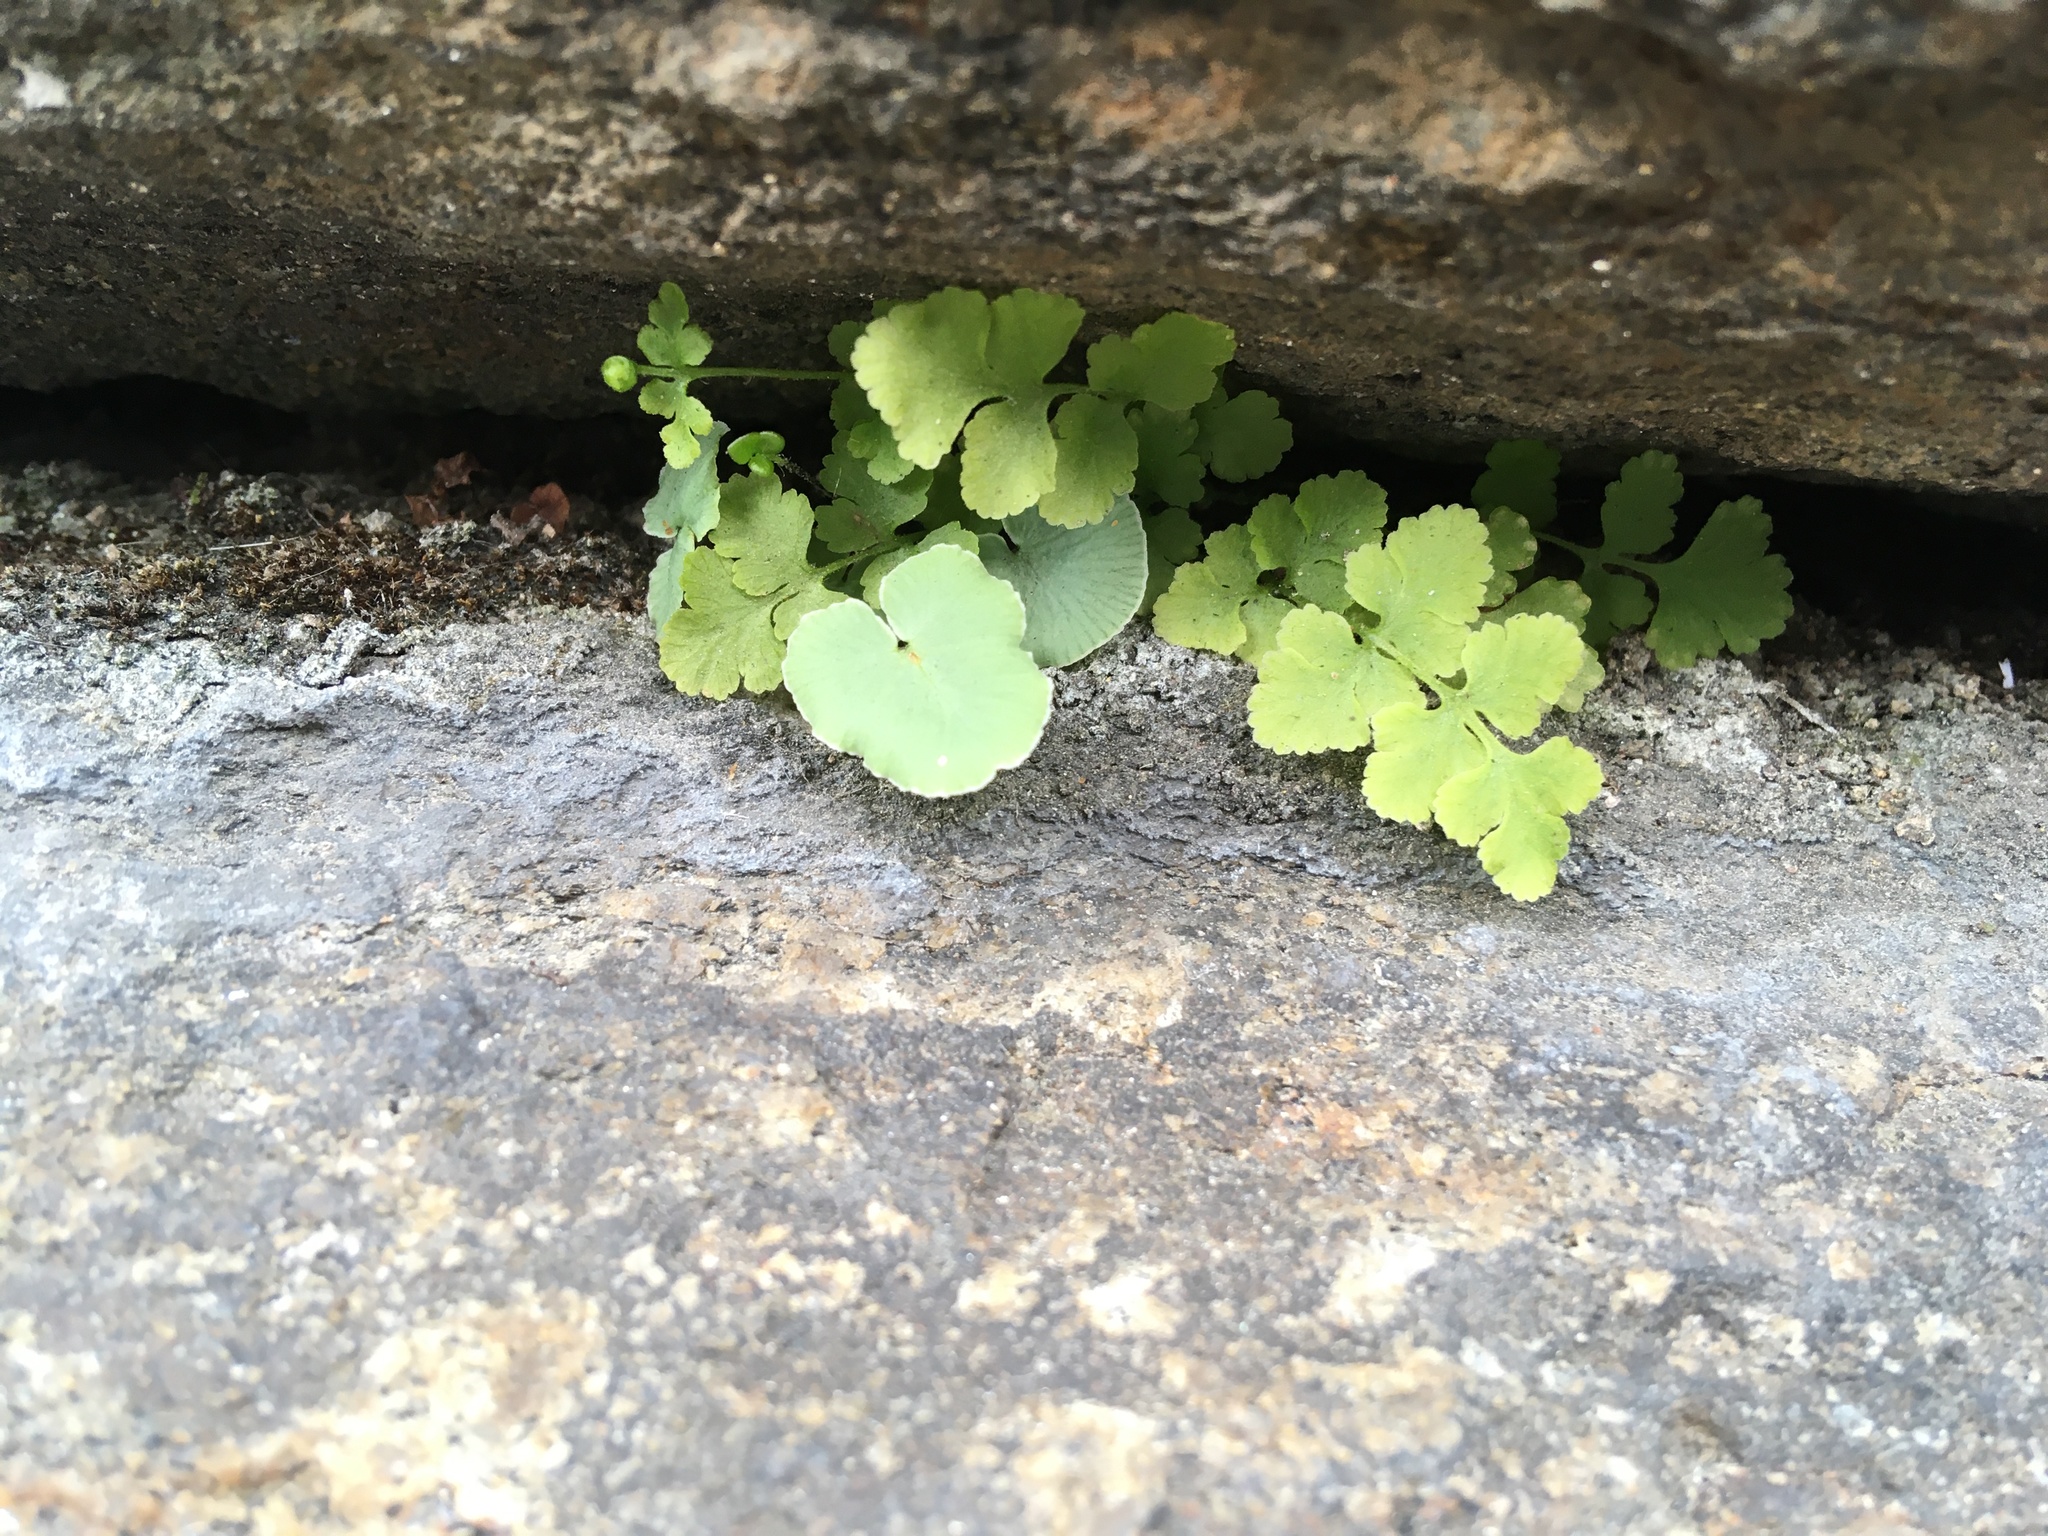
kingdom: Plantae
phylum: Tracheophyta
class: Polypodiopsida
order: Polypodiales
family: Pteridaceae
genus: Pellaea
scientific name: Pellaea atropurpurea
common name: Hairy cliffbrake
